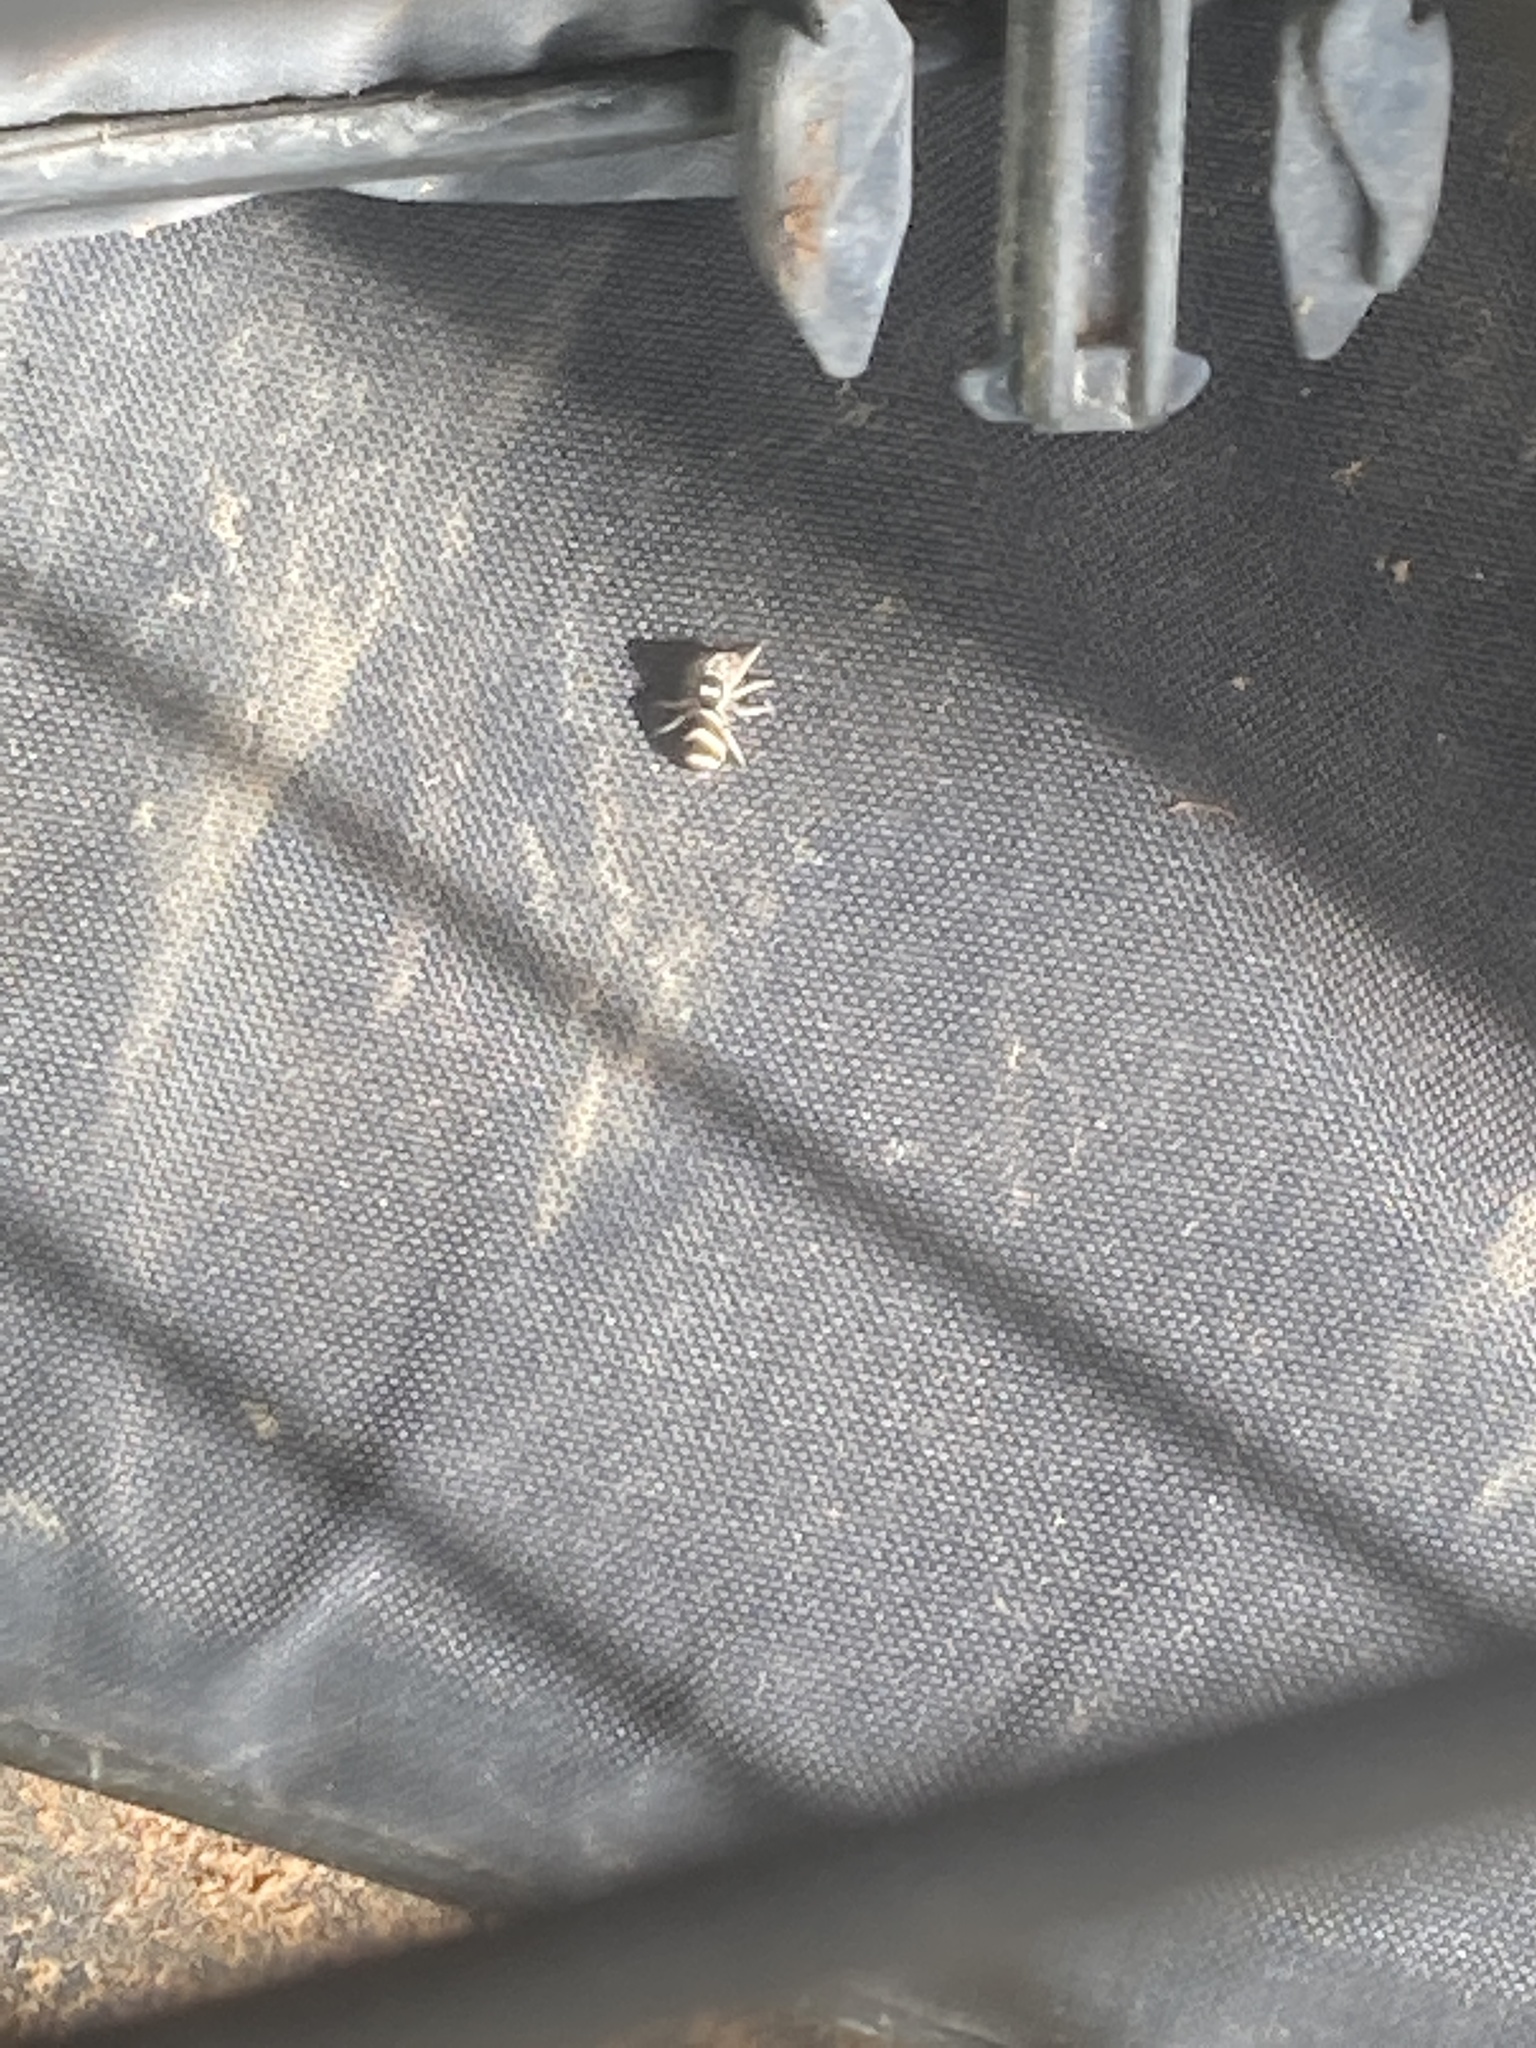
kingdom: Animalia
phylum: Arthropoda
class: Arachnida
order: Araneae
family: Salticidae
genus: Salticus
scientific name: Salticus austinensis
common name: Jumping spiders
